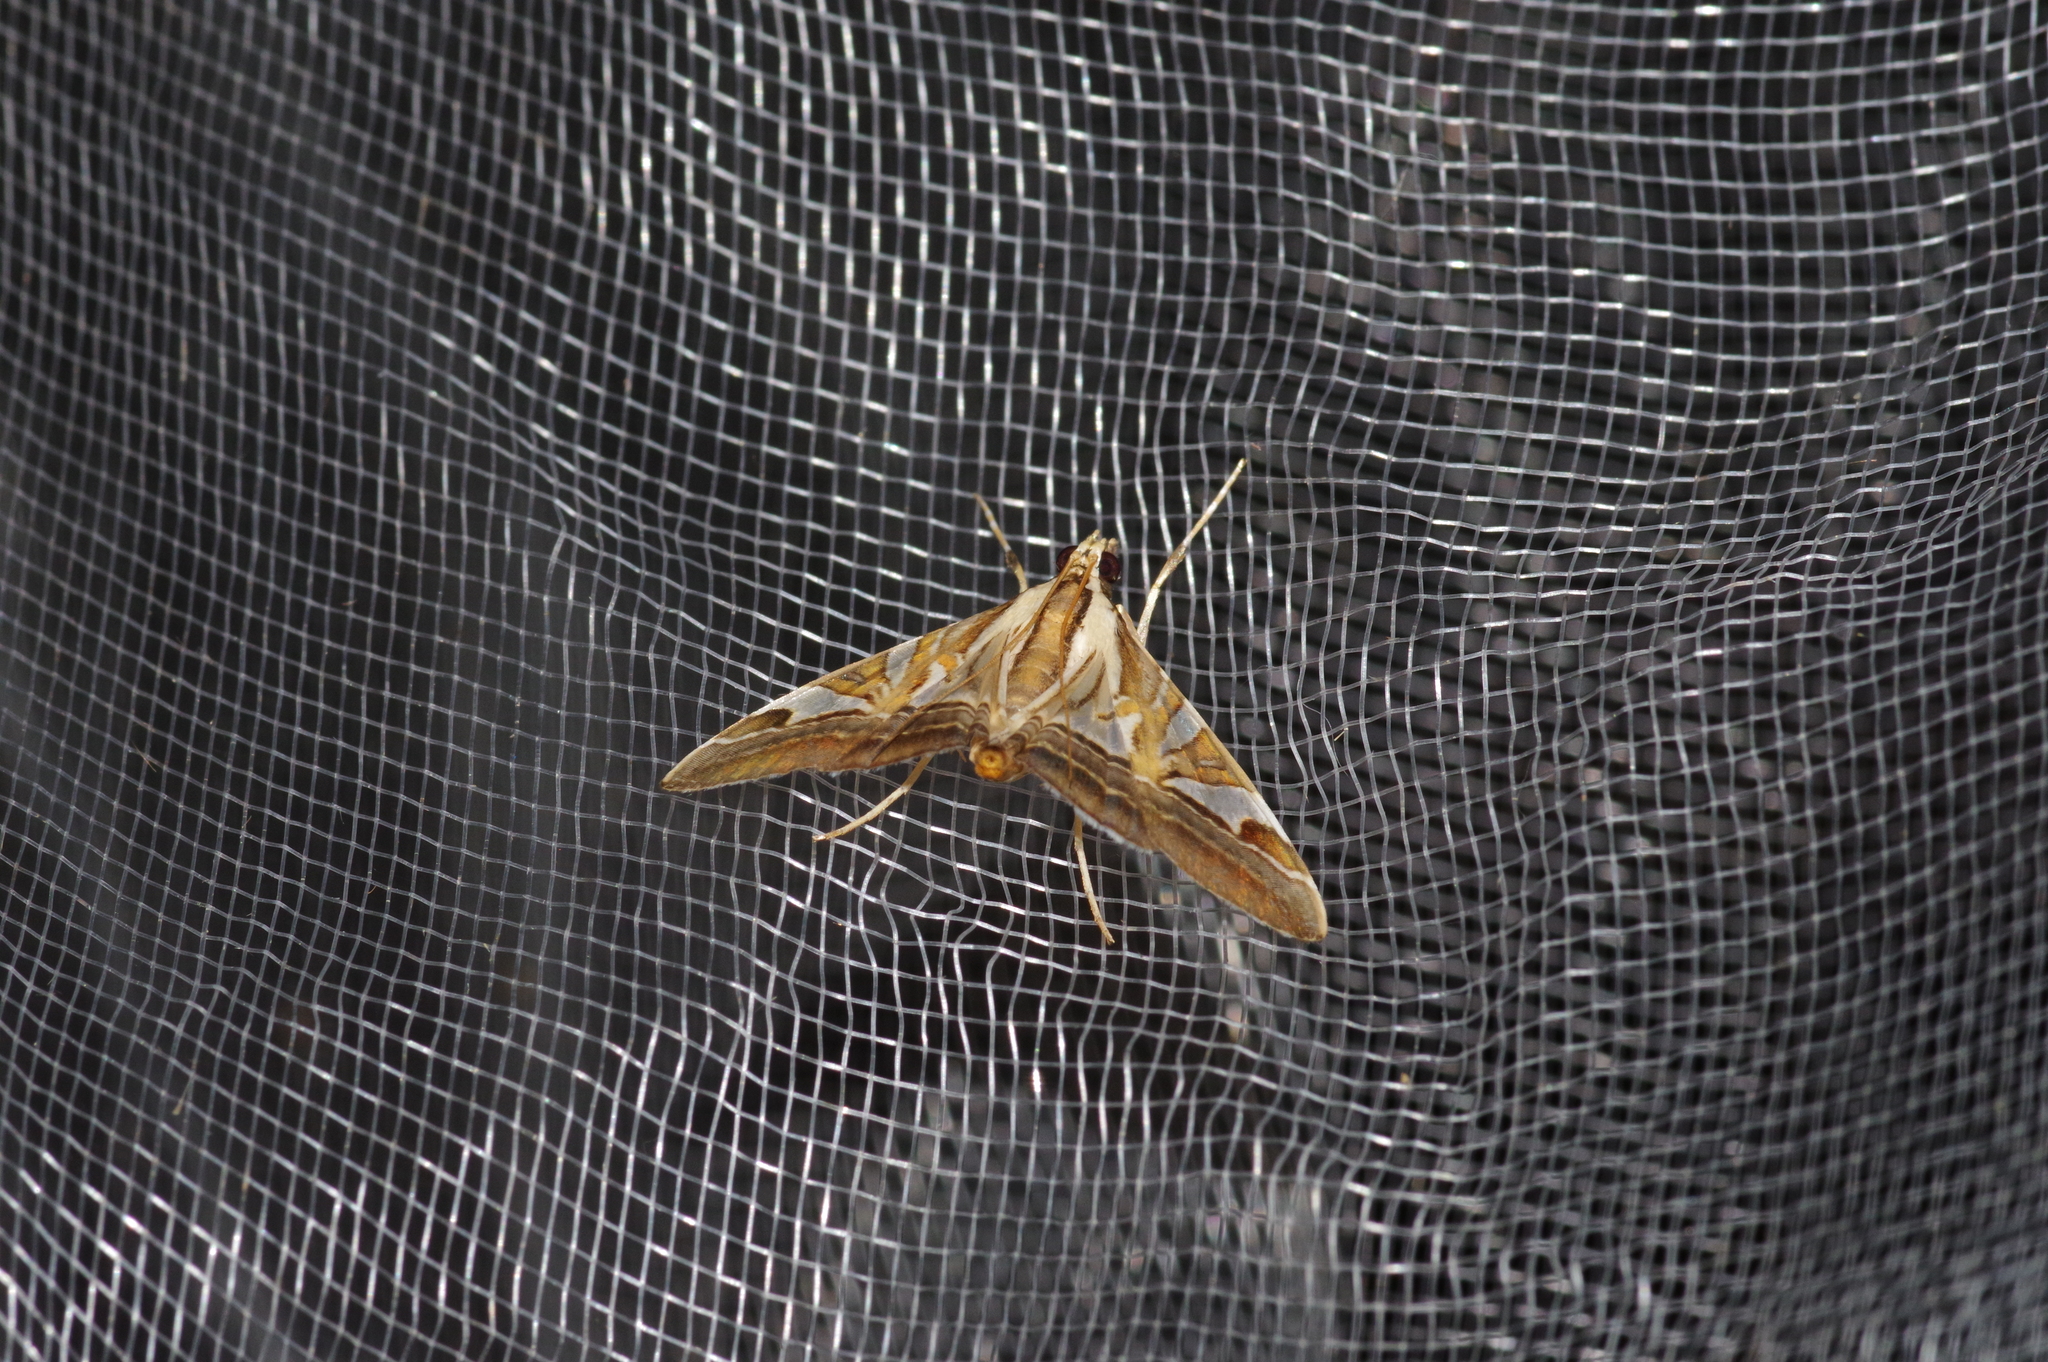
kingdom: Animalia
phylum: Arthropoda
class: Insecta
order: Lepidoptera
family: Crambidae
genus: Agrioglypta
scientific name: Agrioglypta itysalis
